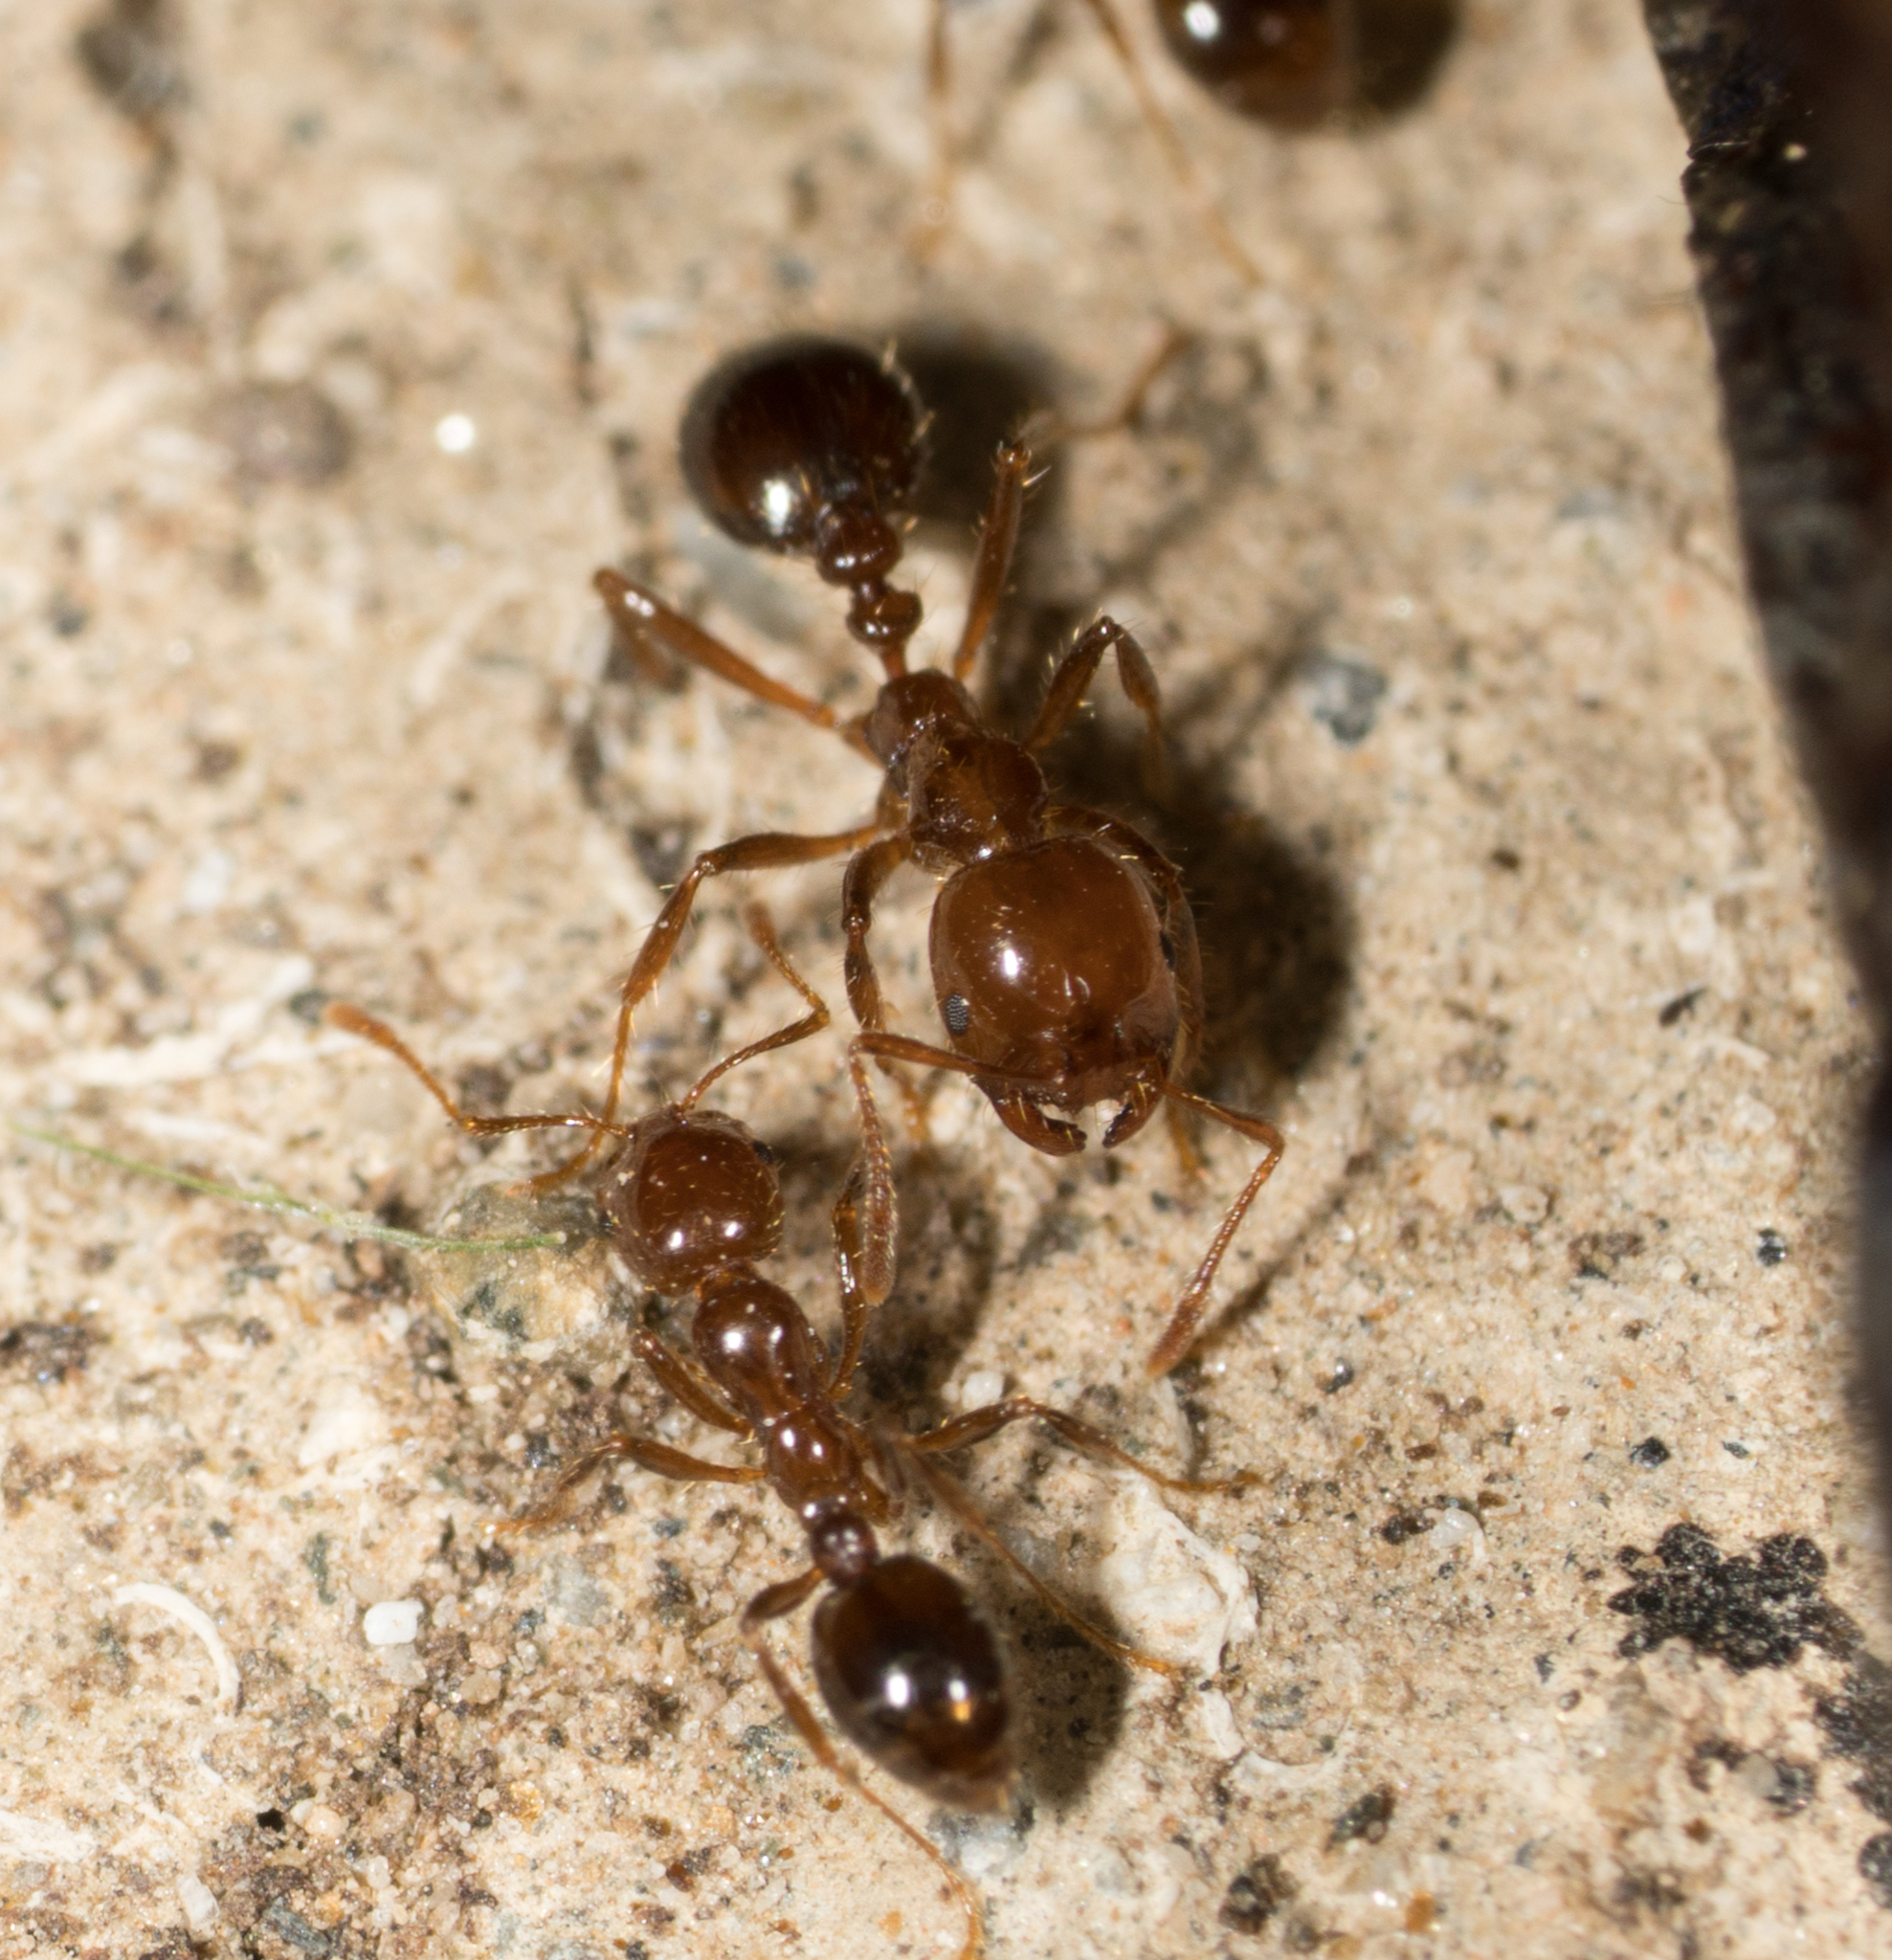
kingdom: Animalia
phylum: Arthropoda
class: Insecta
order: Hymenoptera
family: Formicidae
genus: Solenopsis
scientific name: Solenopsis invicta
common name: Red imported fire ant
